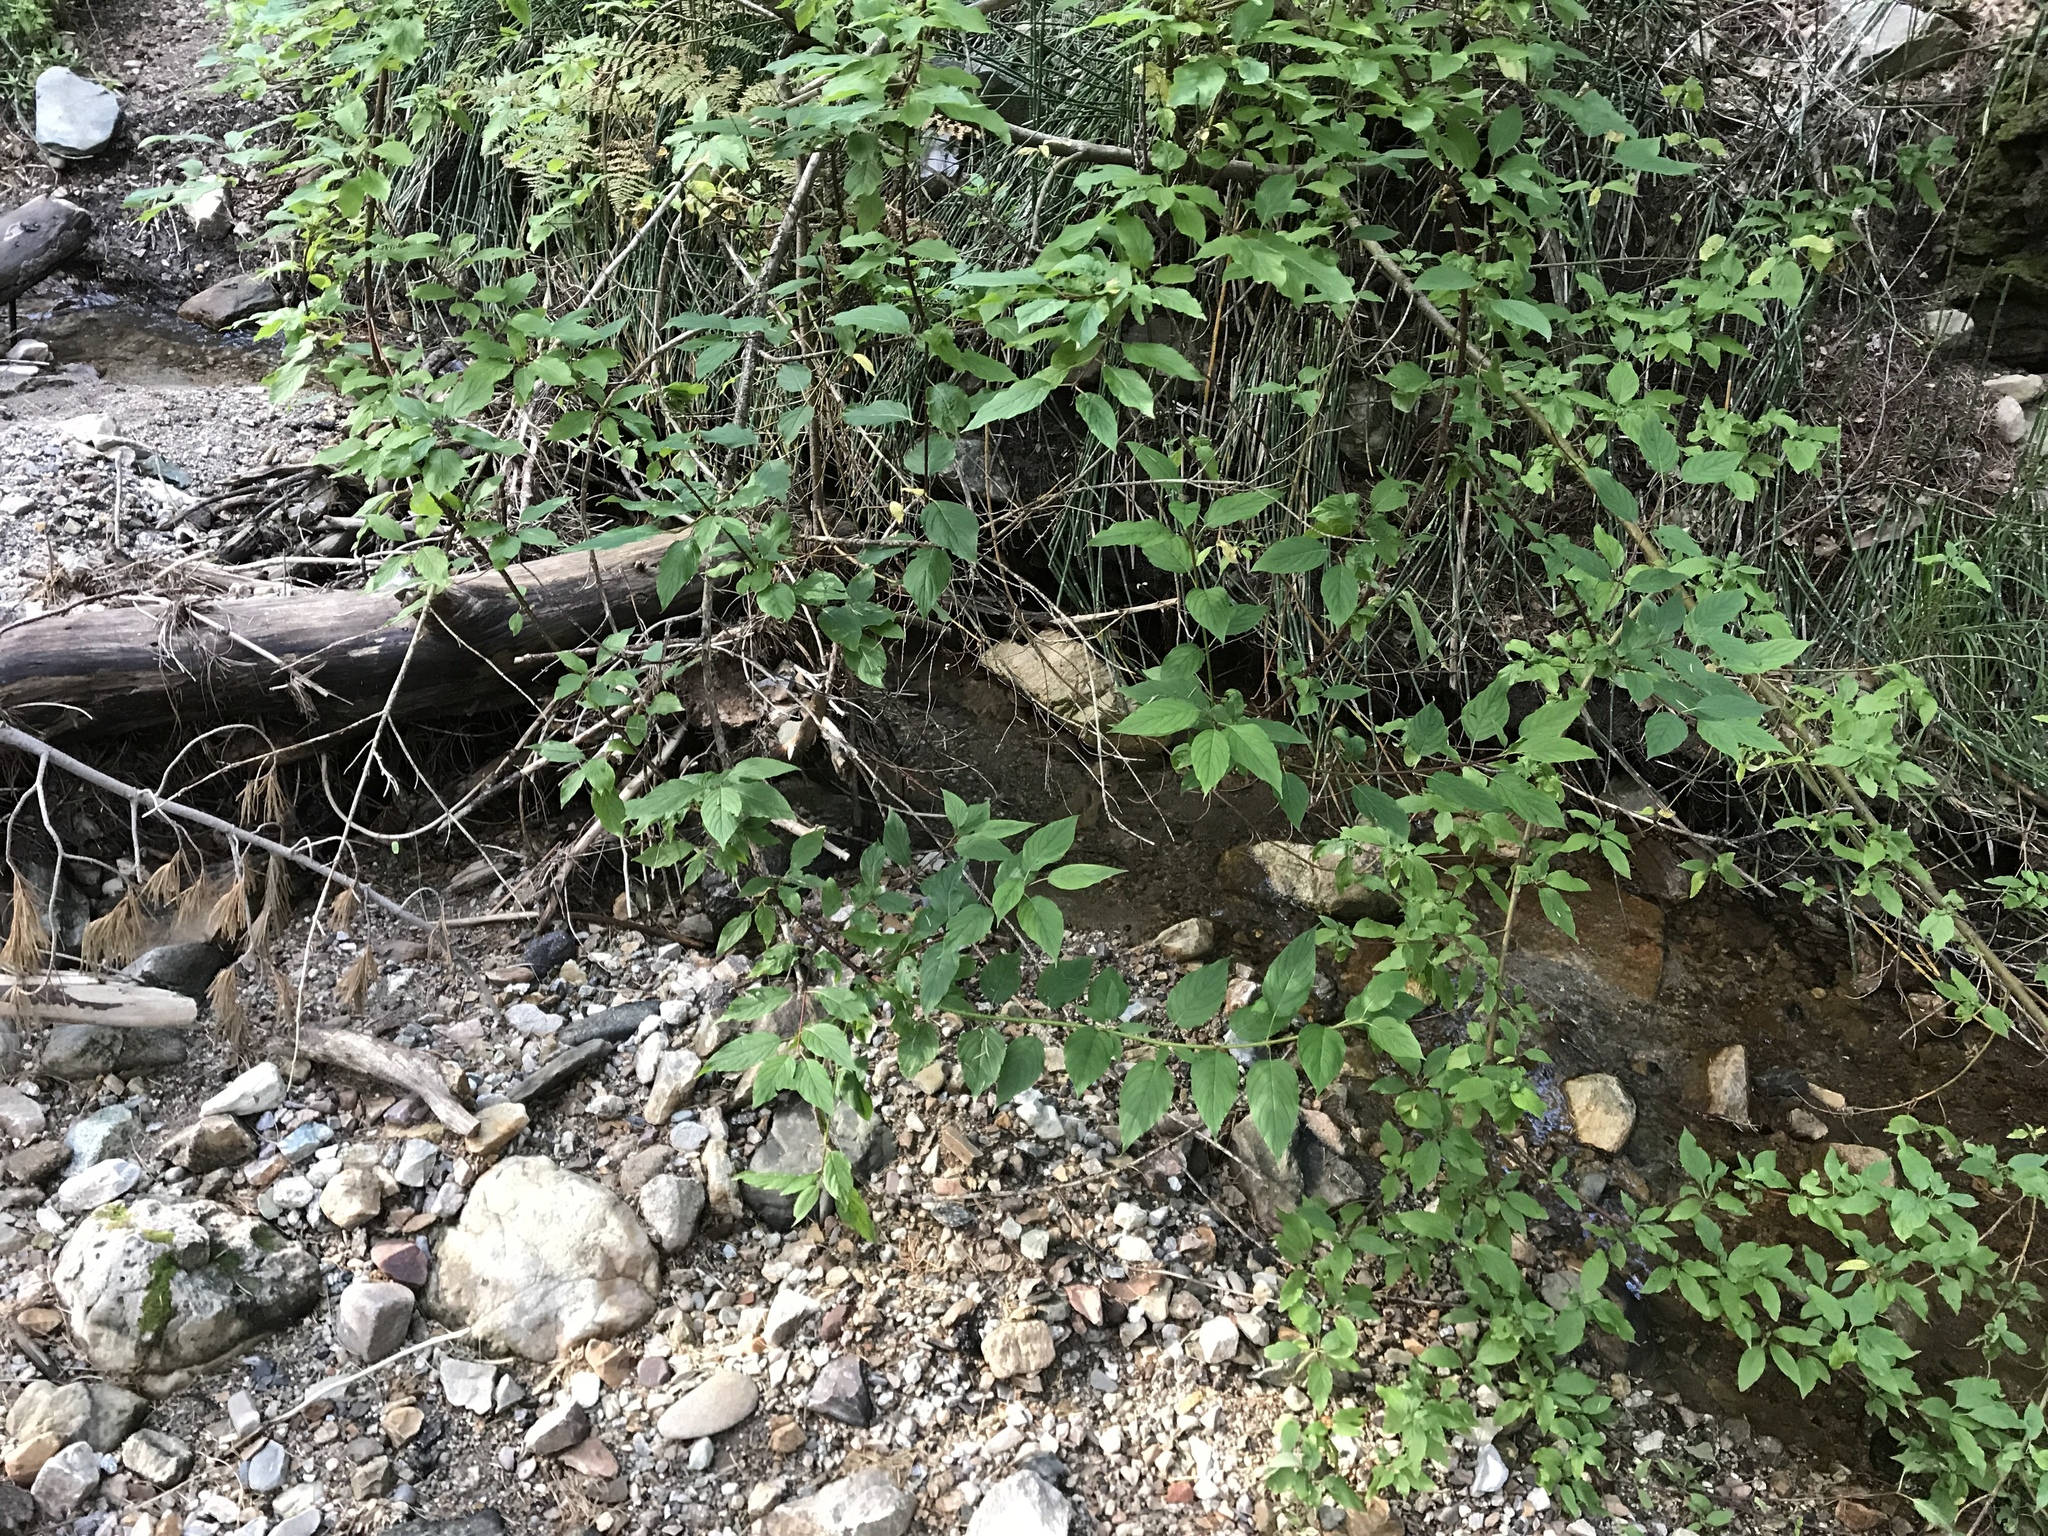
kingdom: Plantae
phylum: Tracheophyta
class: Magnoliopsida
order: Cornales
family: Cornaceae
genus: Cornus
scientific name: Cornus sericea
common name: Red-osier dogwood
